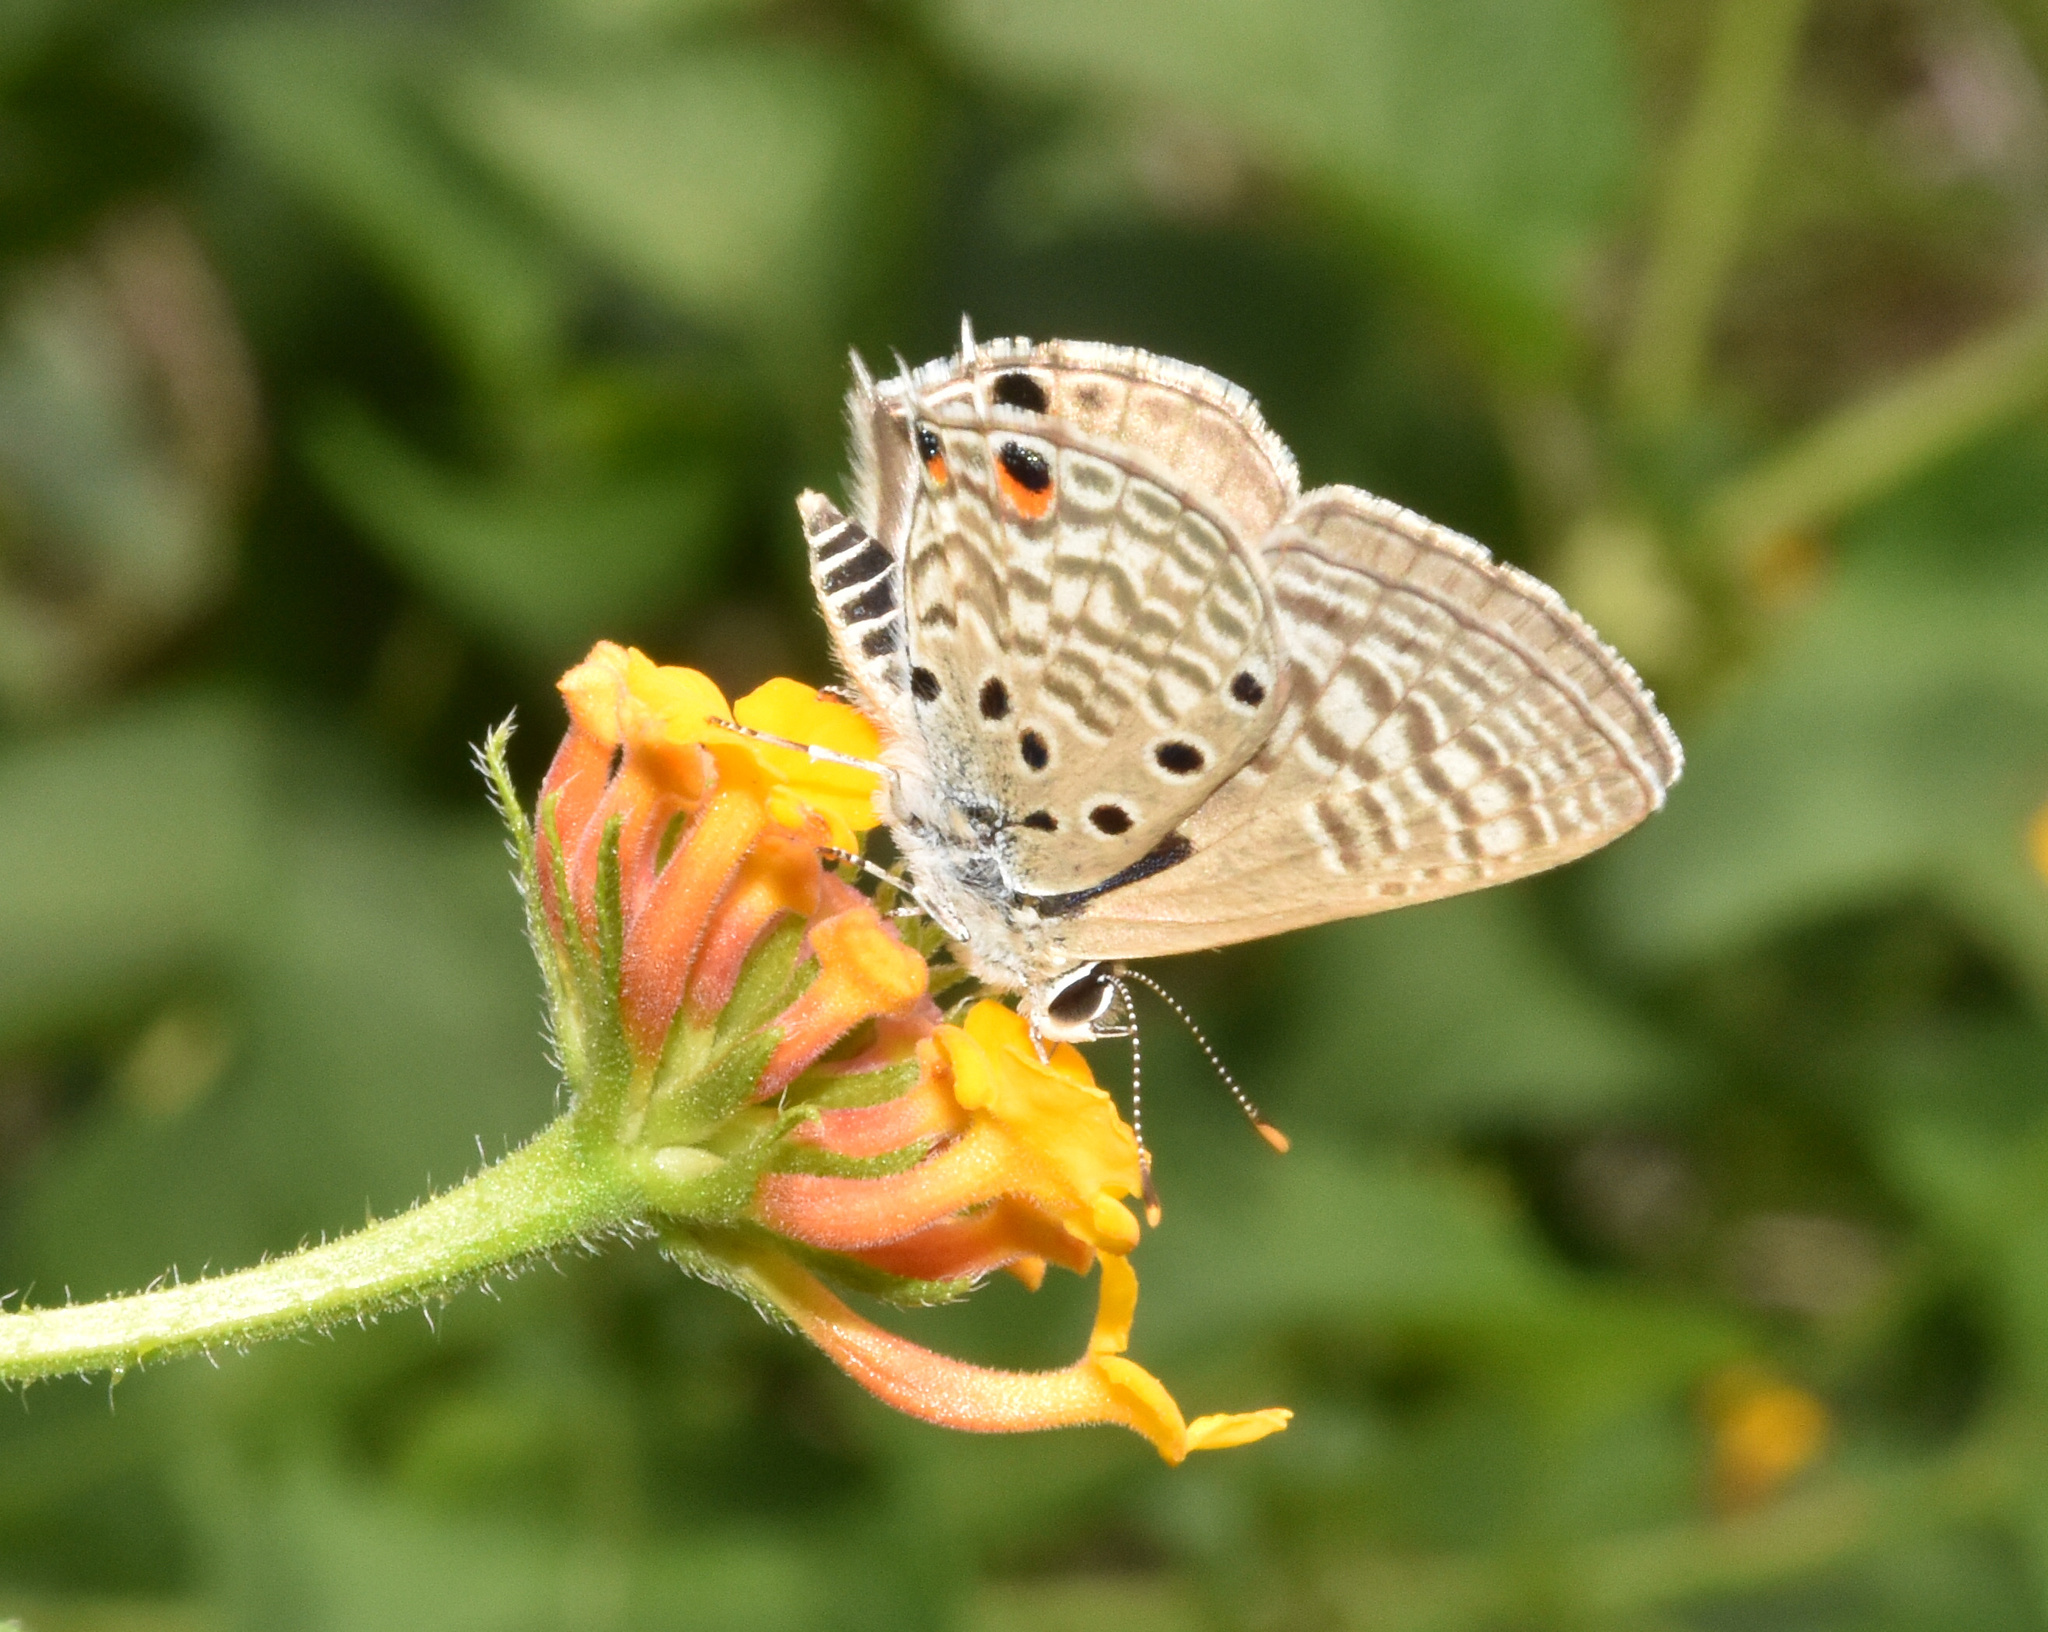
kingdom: Animalia
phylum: Arthropoda
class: Insecta
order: Lepidoptera
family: Lycaenidae
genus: Anthene
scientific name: Anthene amarah
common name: Black-striped hairtail
